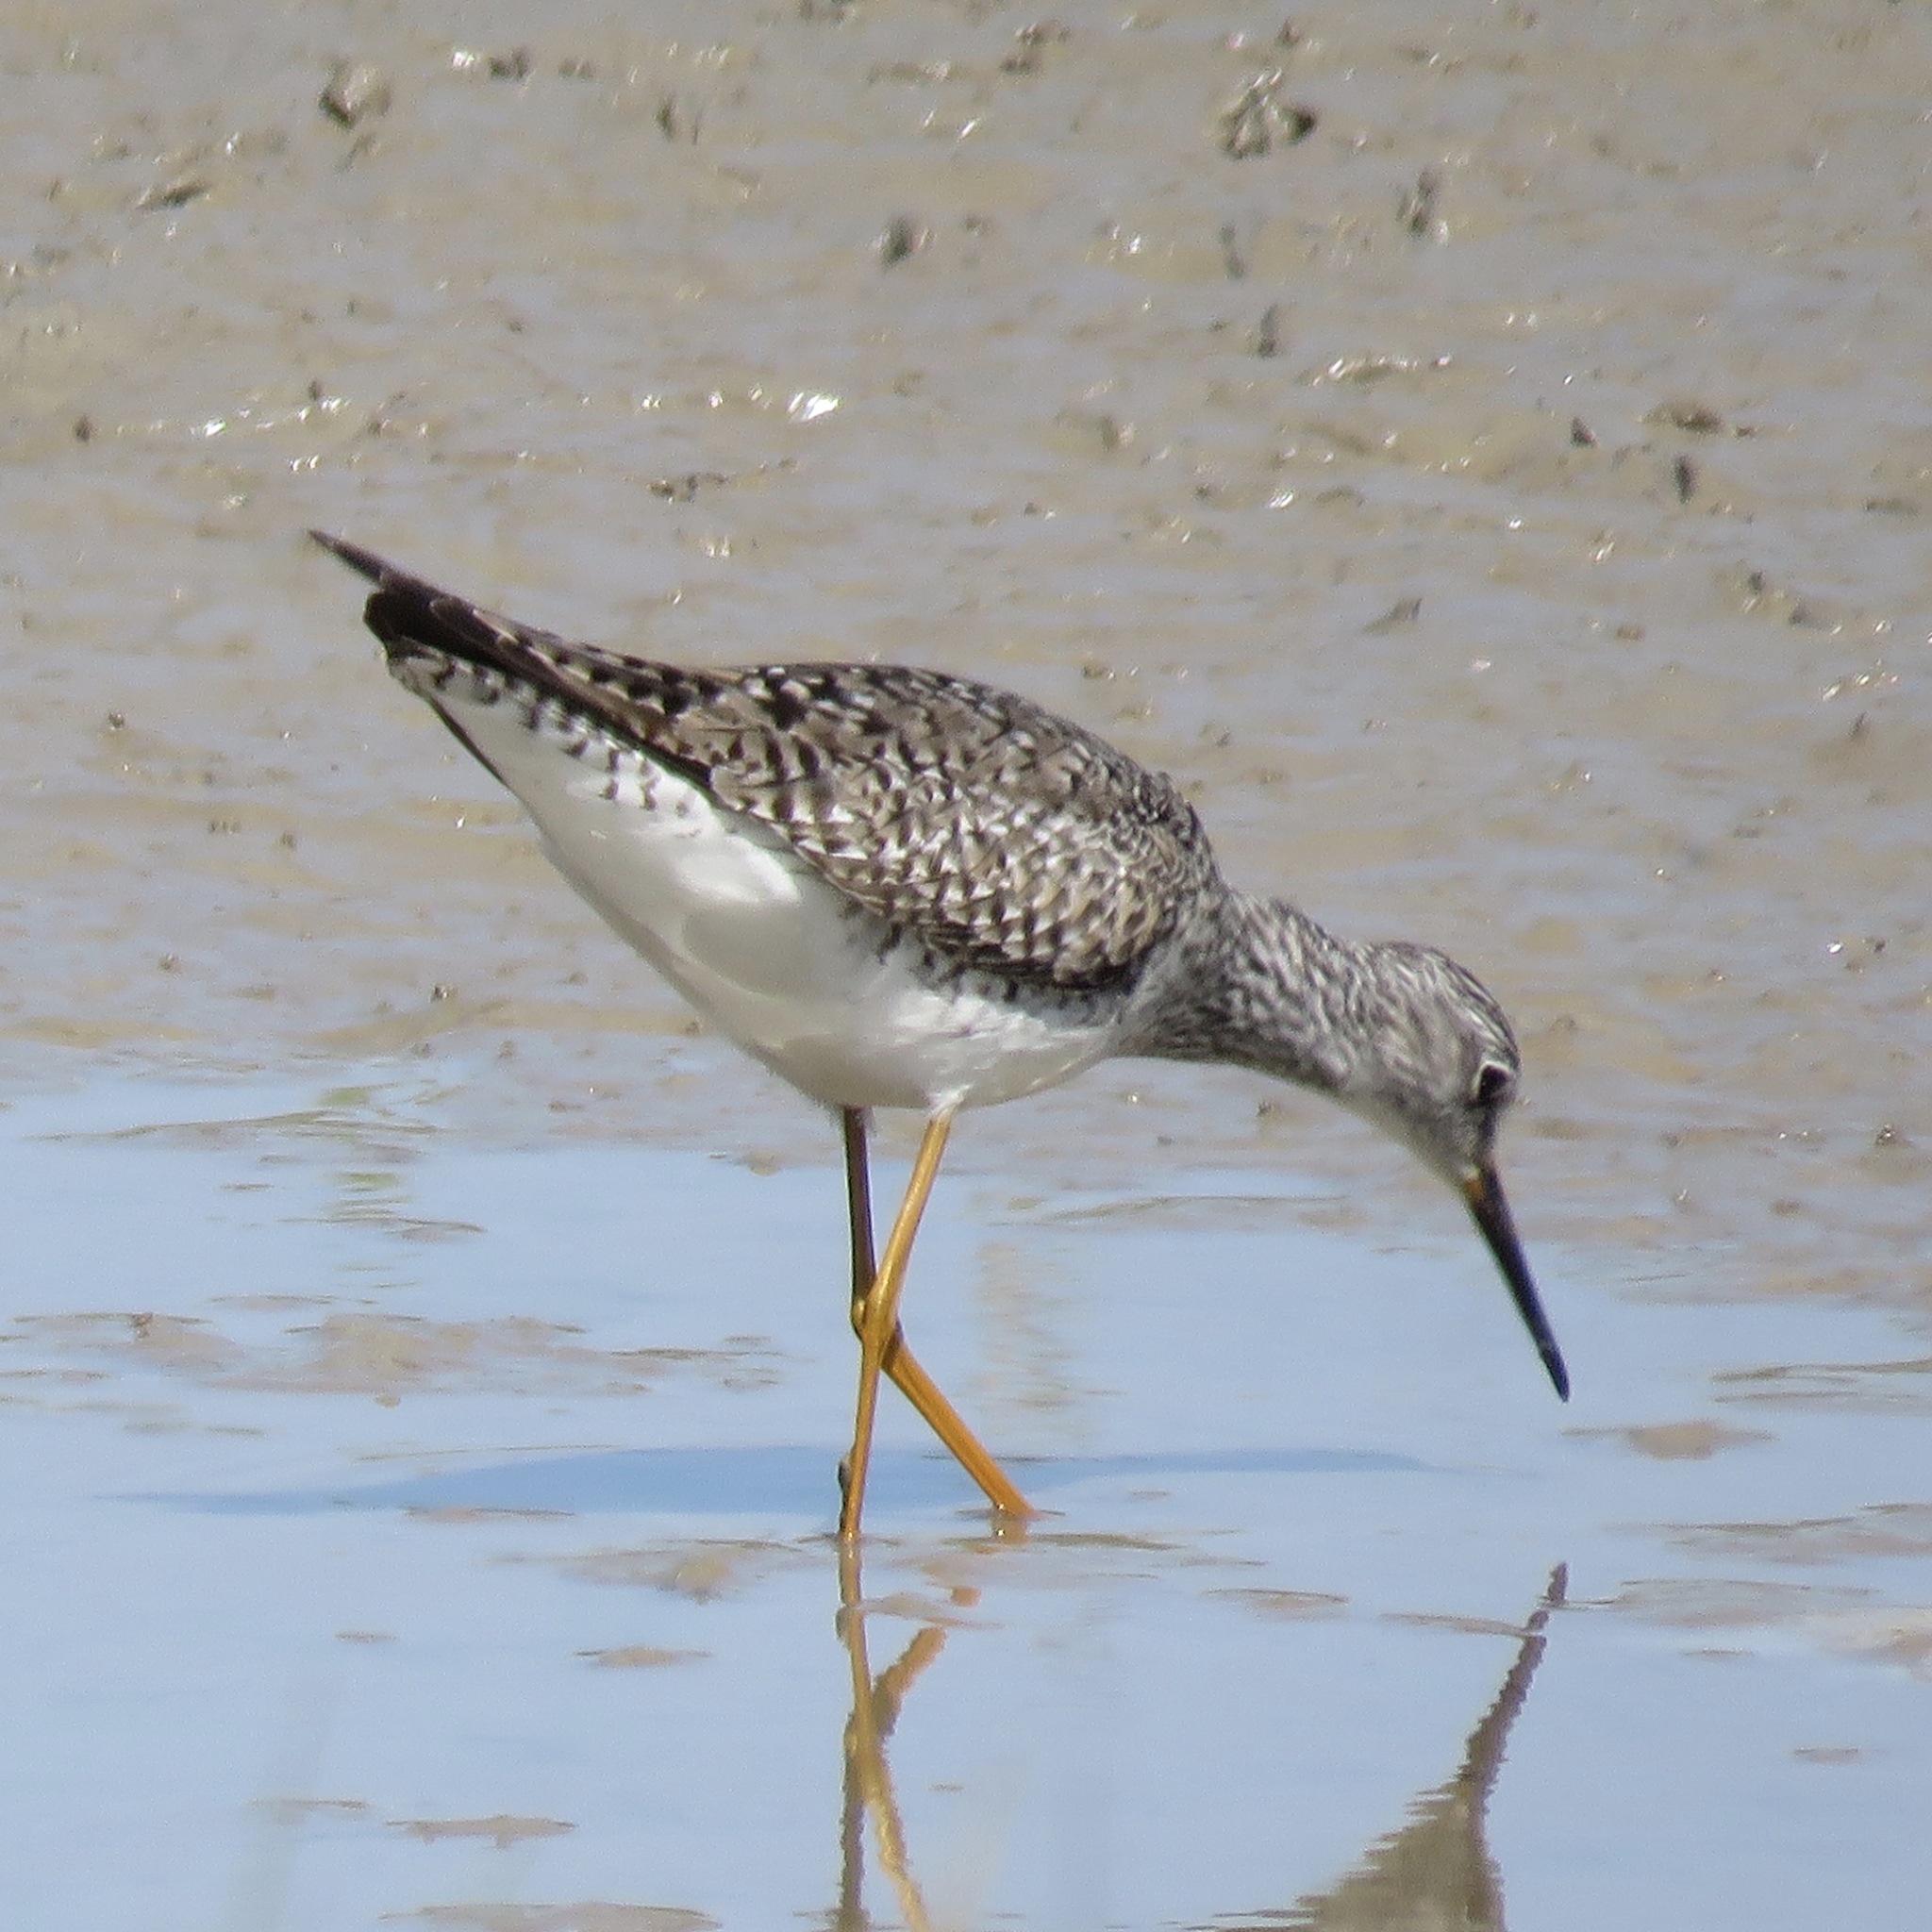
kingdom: Animalia
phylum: Chordata
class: Aves
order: Charadriiformes
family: Scolopacidae
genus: Tringa
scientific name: Tringa melanoleuca
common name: Greater yellowlegs
